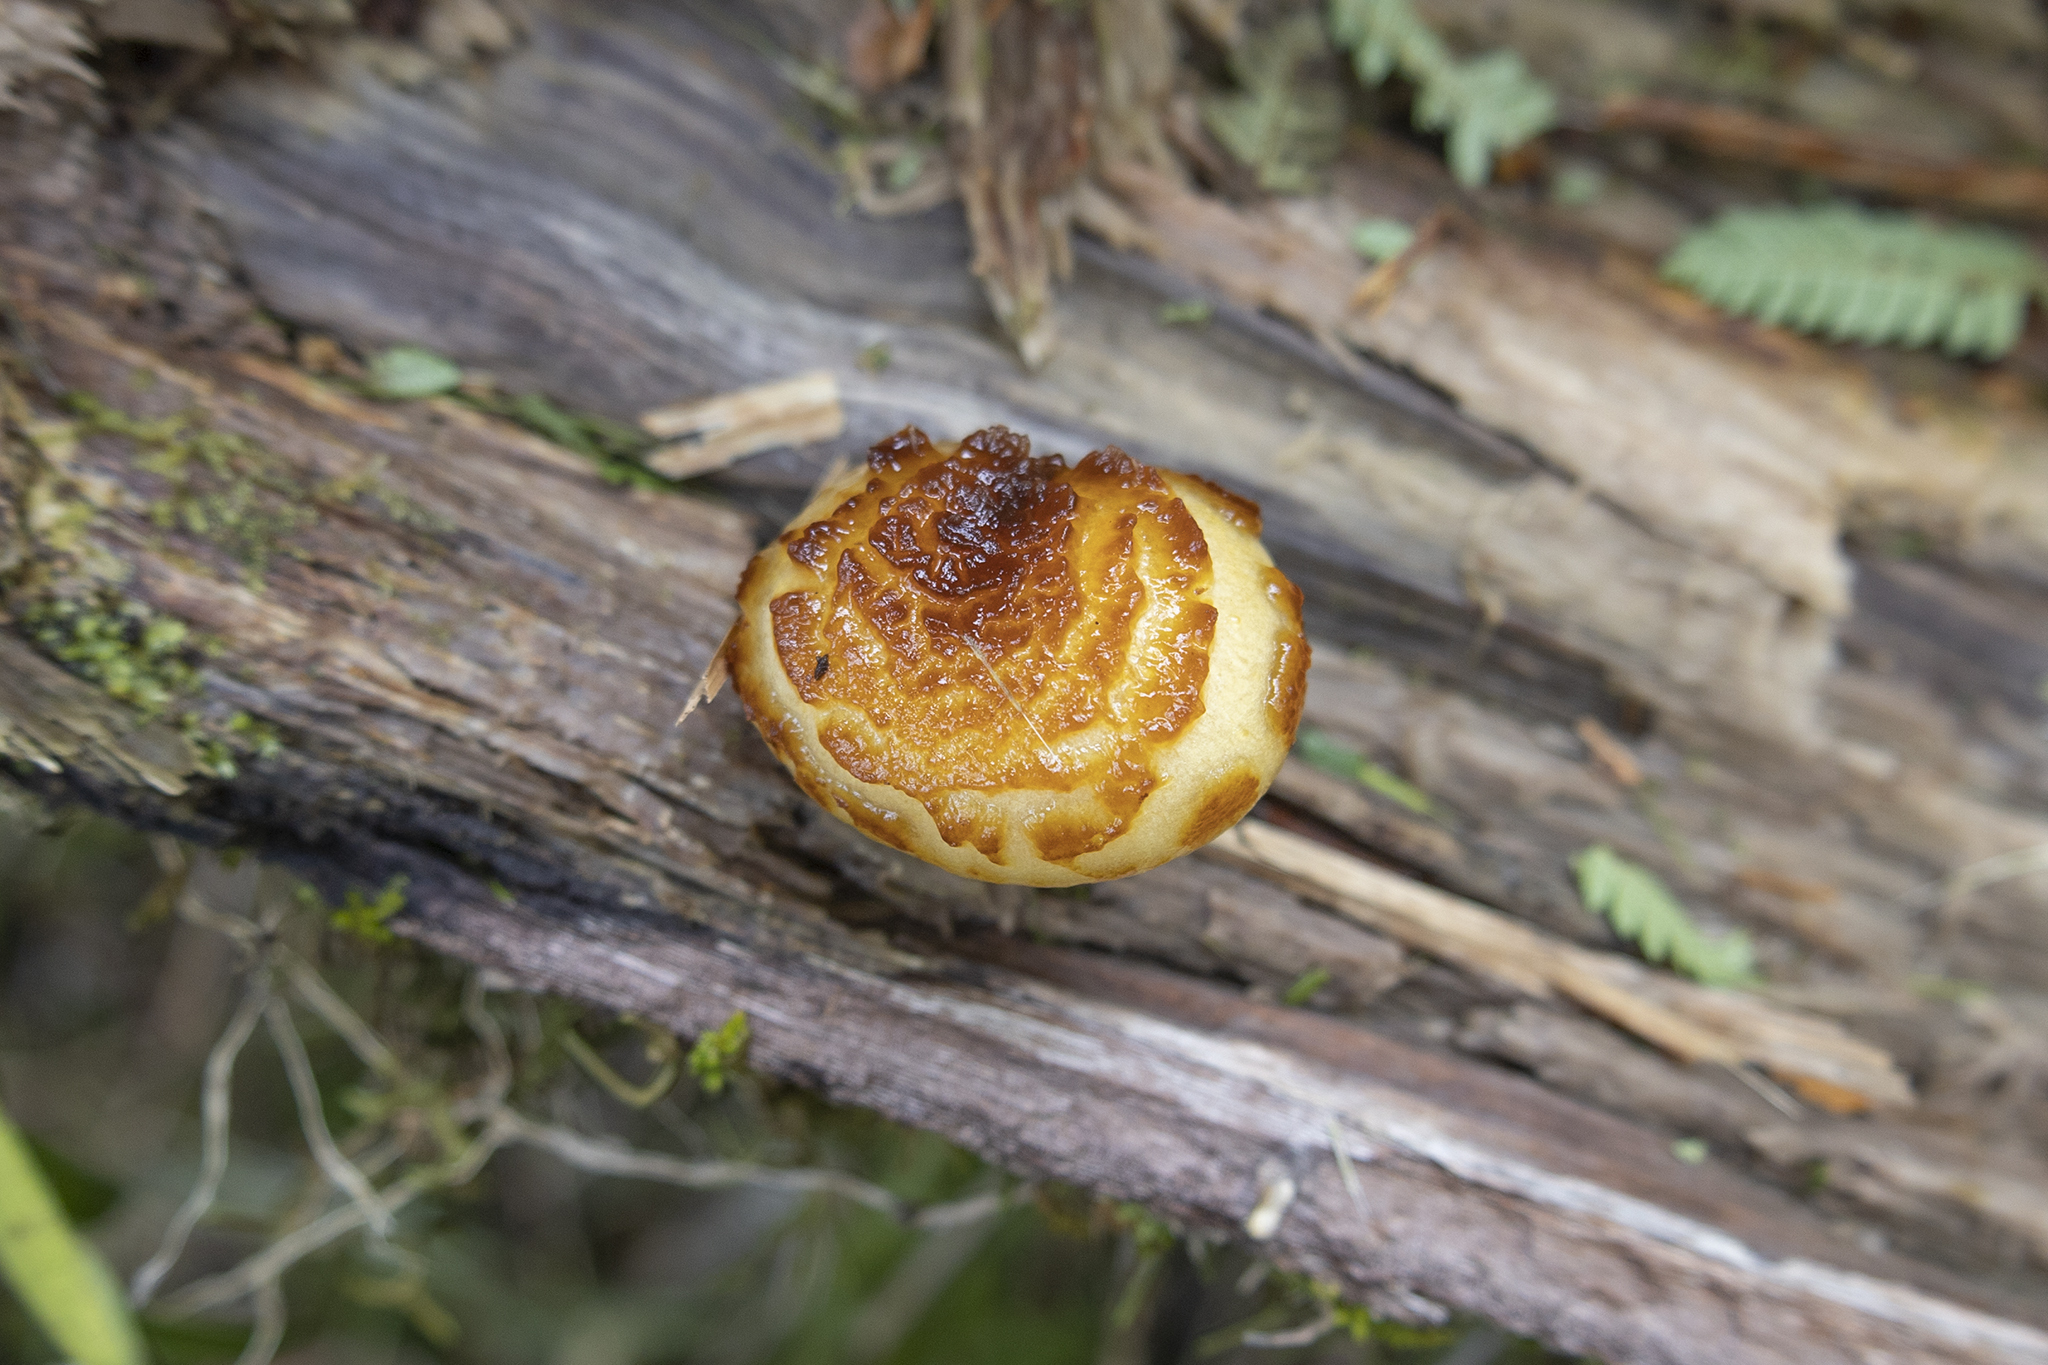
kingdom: Fungi
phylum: Basidiomycota
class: Agaricomycetes
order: Agaricales
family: Strophariaceae
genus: Pholiota
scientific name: Pholiota glutinosa
